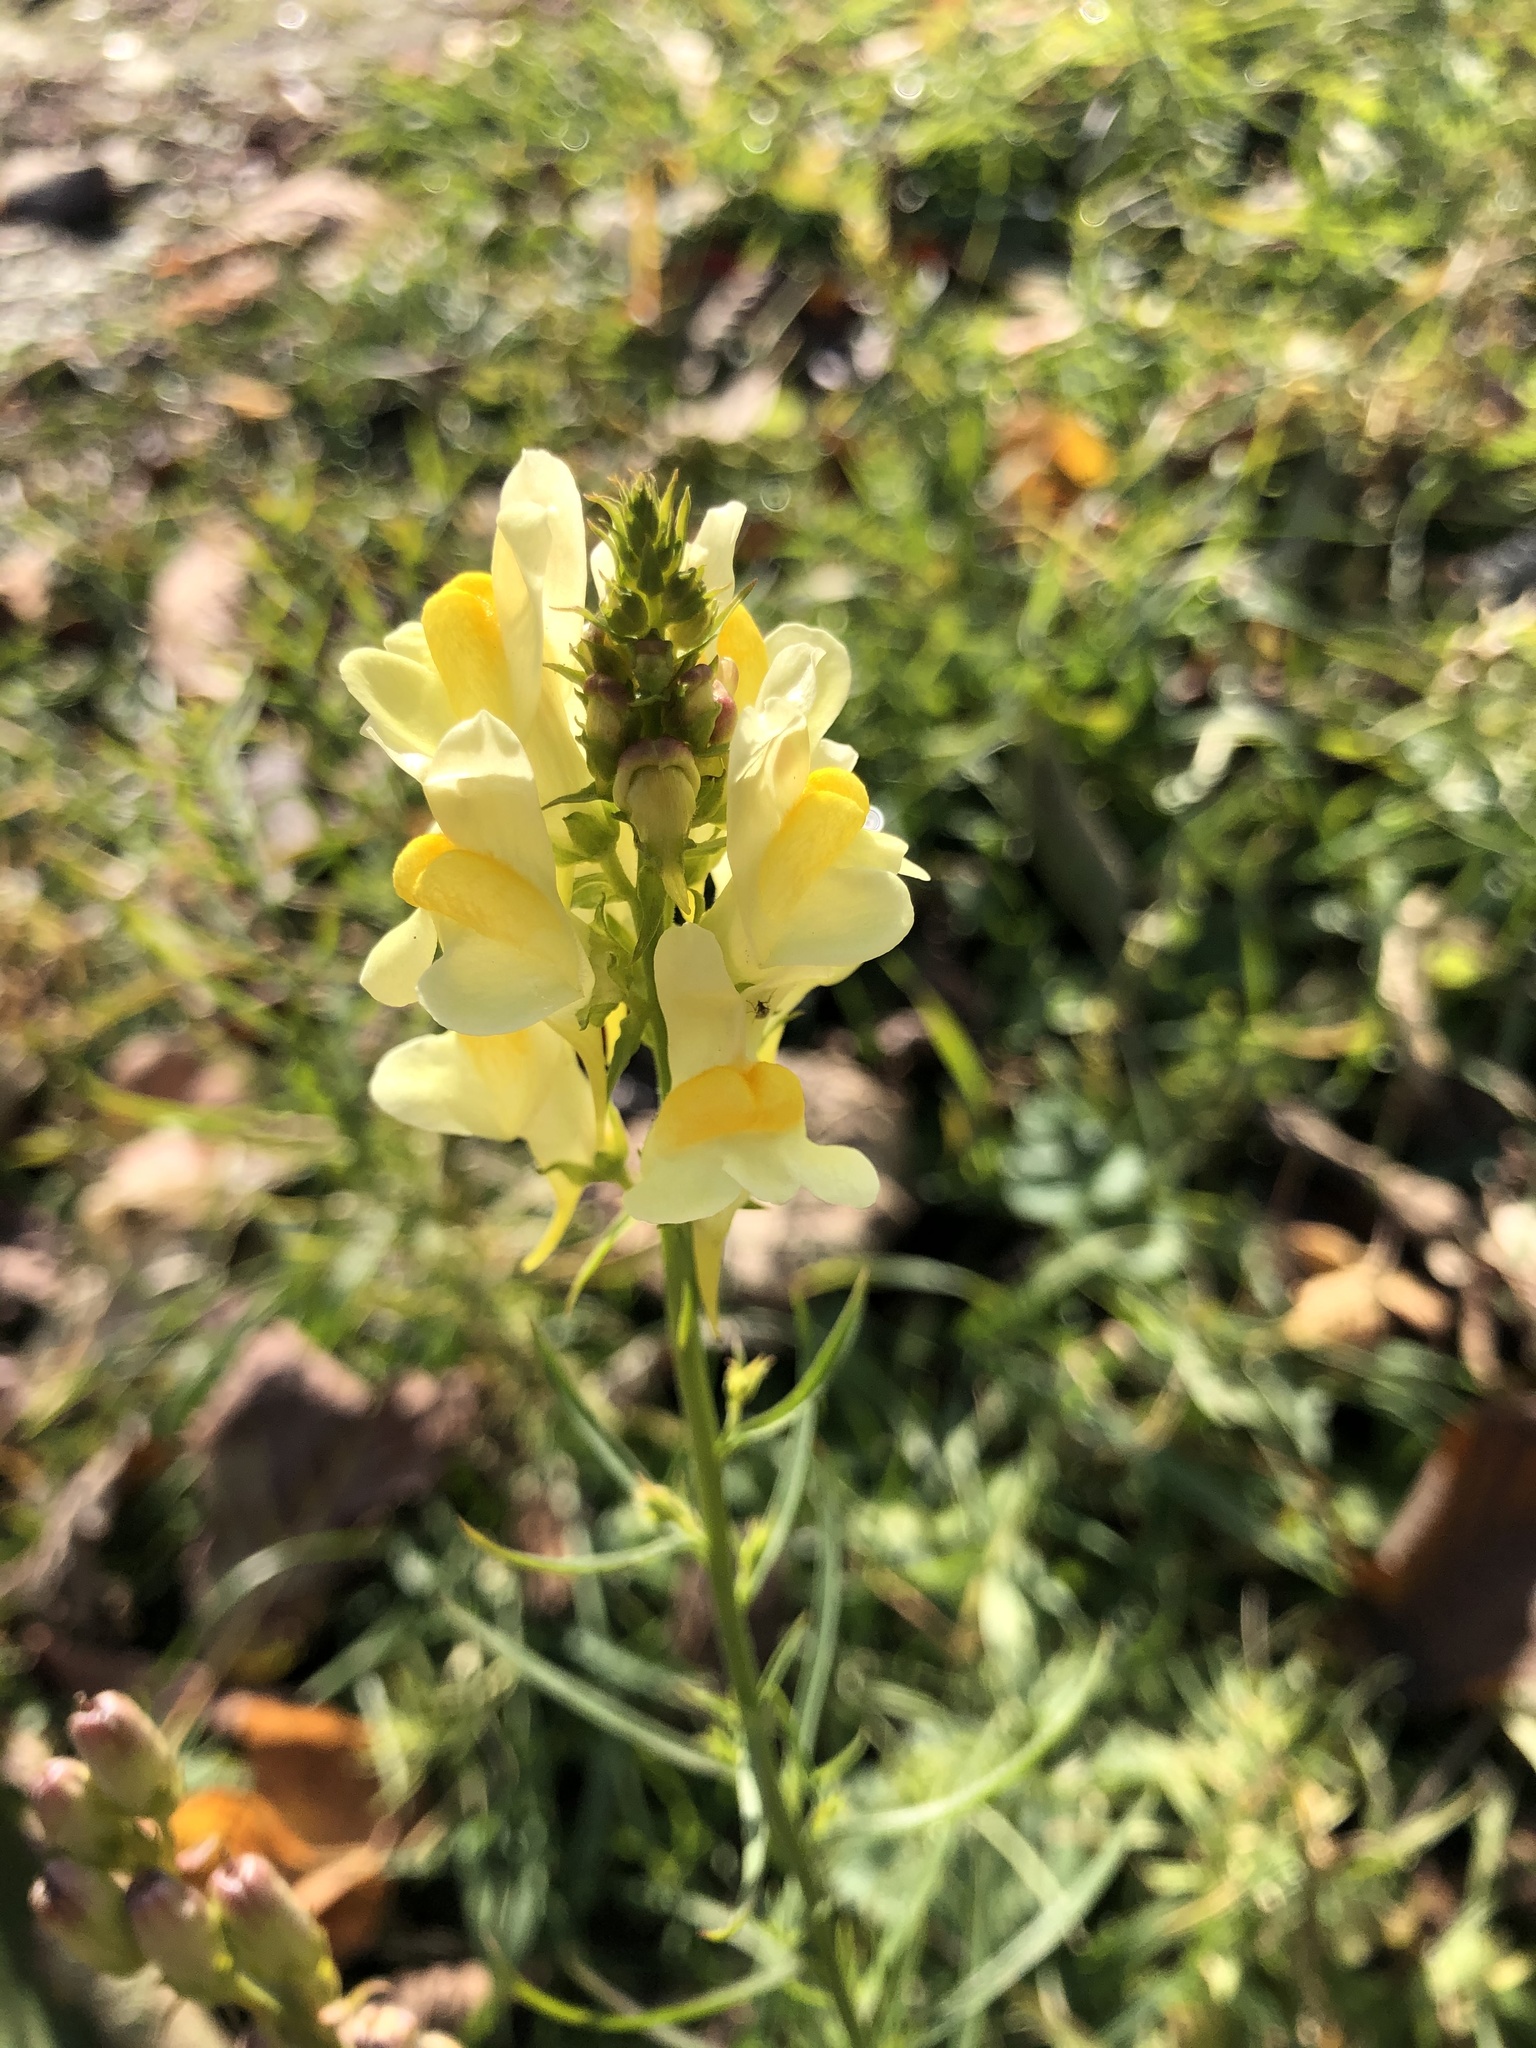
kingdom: Plantae
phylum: Tracheophyta
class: Magnoliopsida
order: Lamiales
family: Plantaginaceae
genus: Linaria
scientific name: Linaria vulgaris
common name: Butter and eggs
